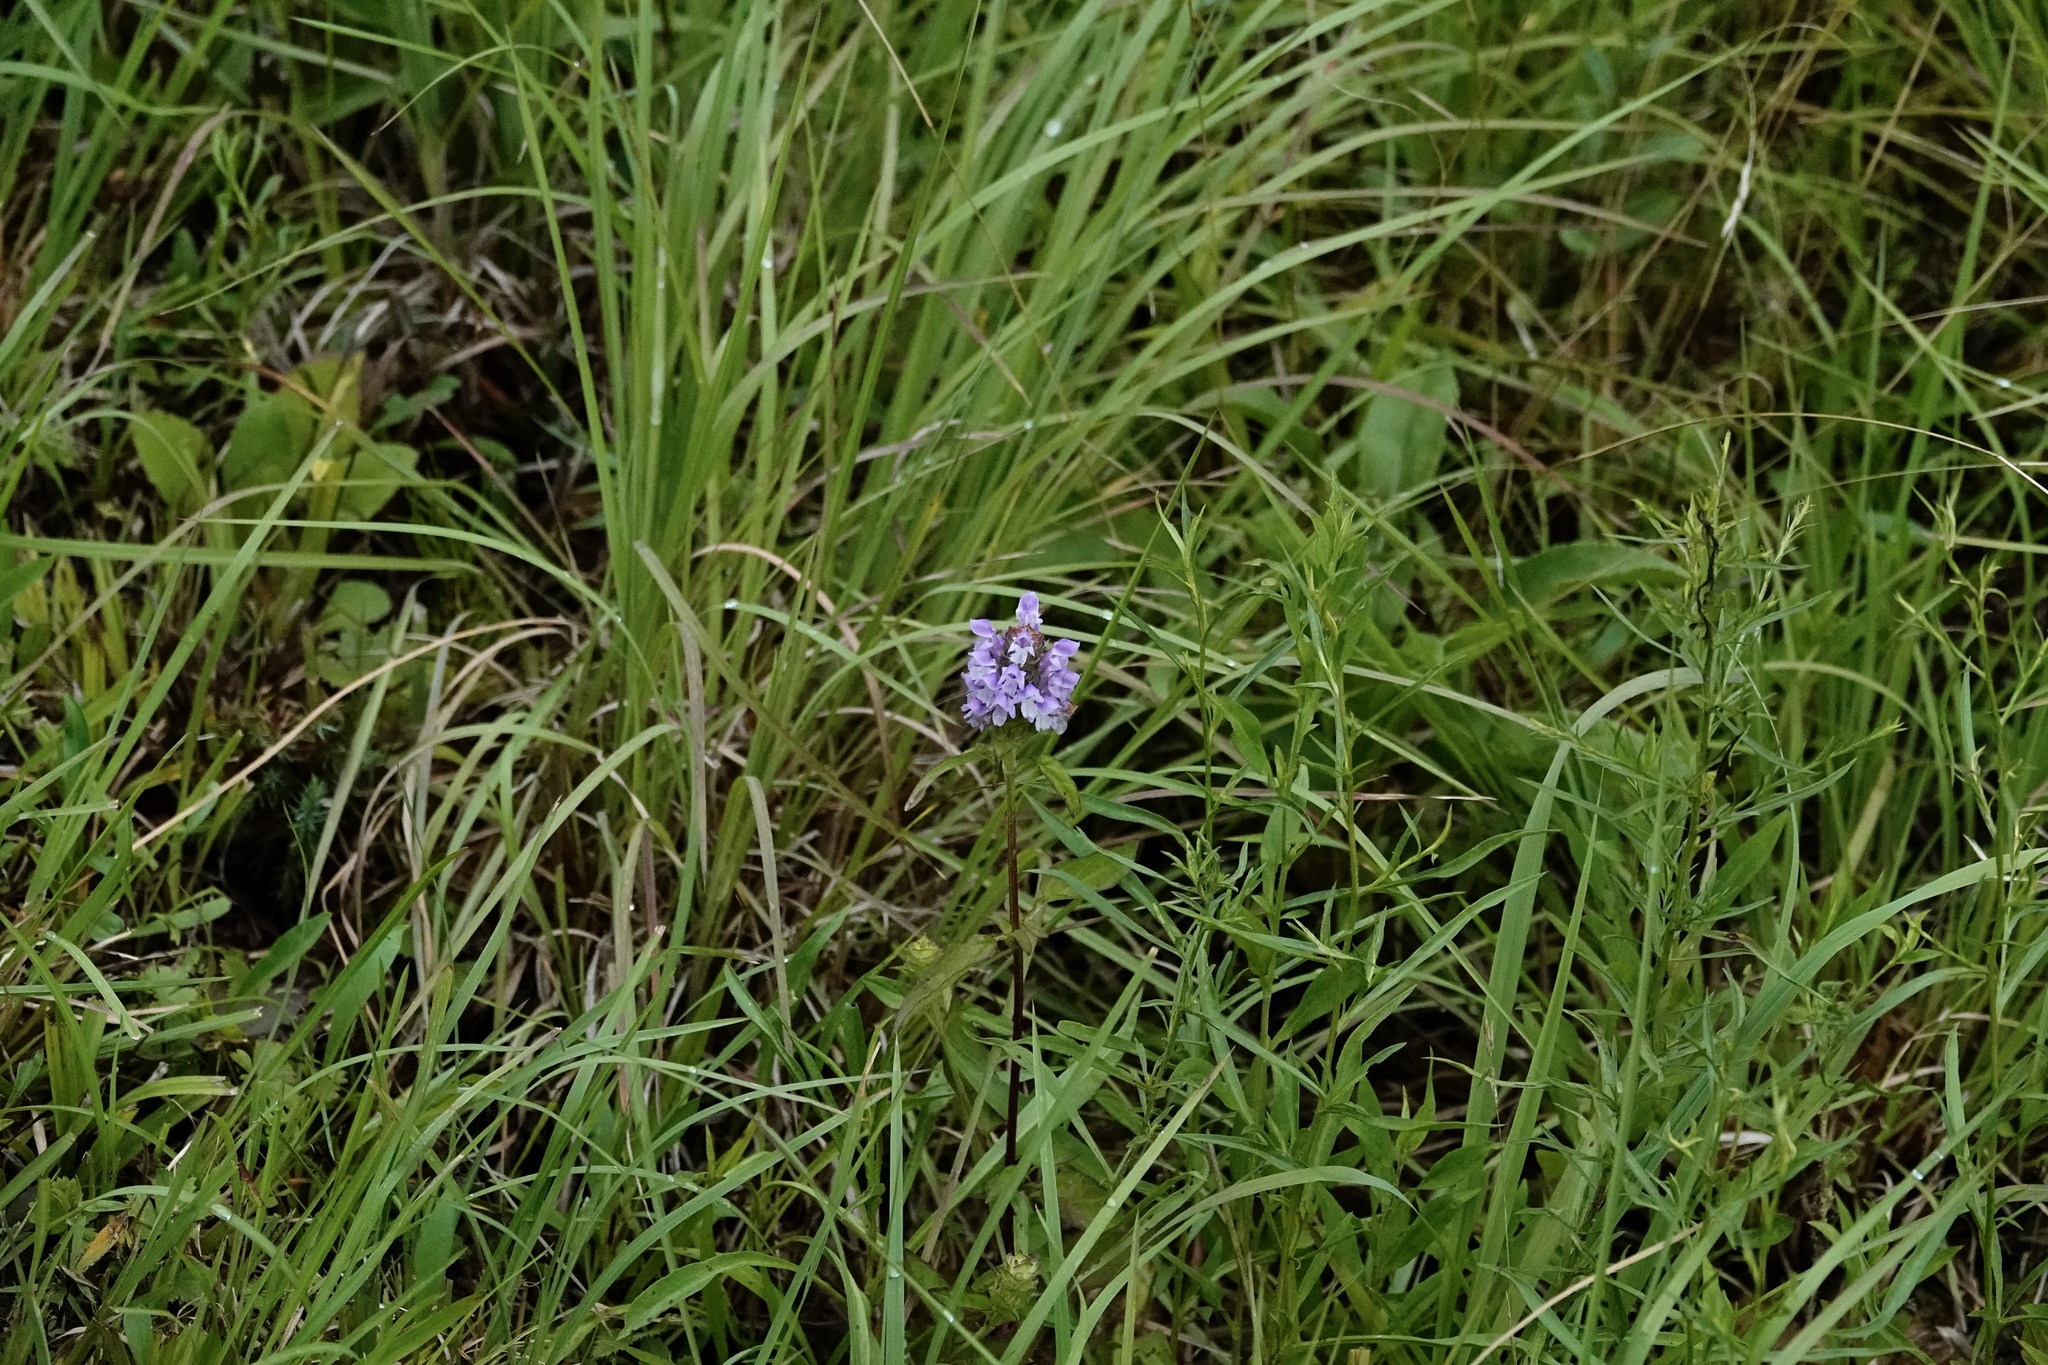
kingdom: Plantae
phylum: Tracheophyta
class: Magnoliopsida
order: Lamiales
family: Lamiaceae
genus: Prunella
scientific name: Prunella vulgaris
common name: Heal-all
